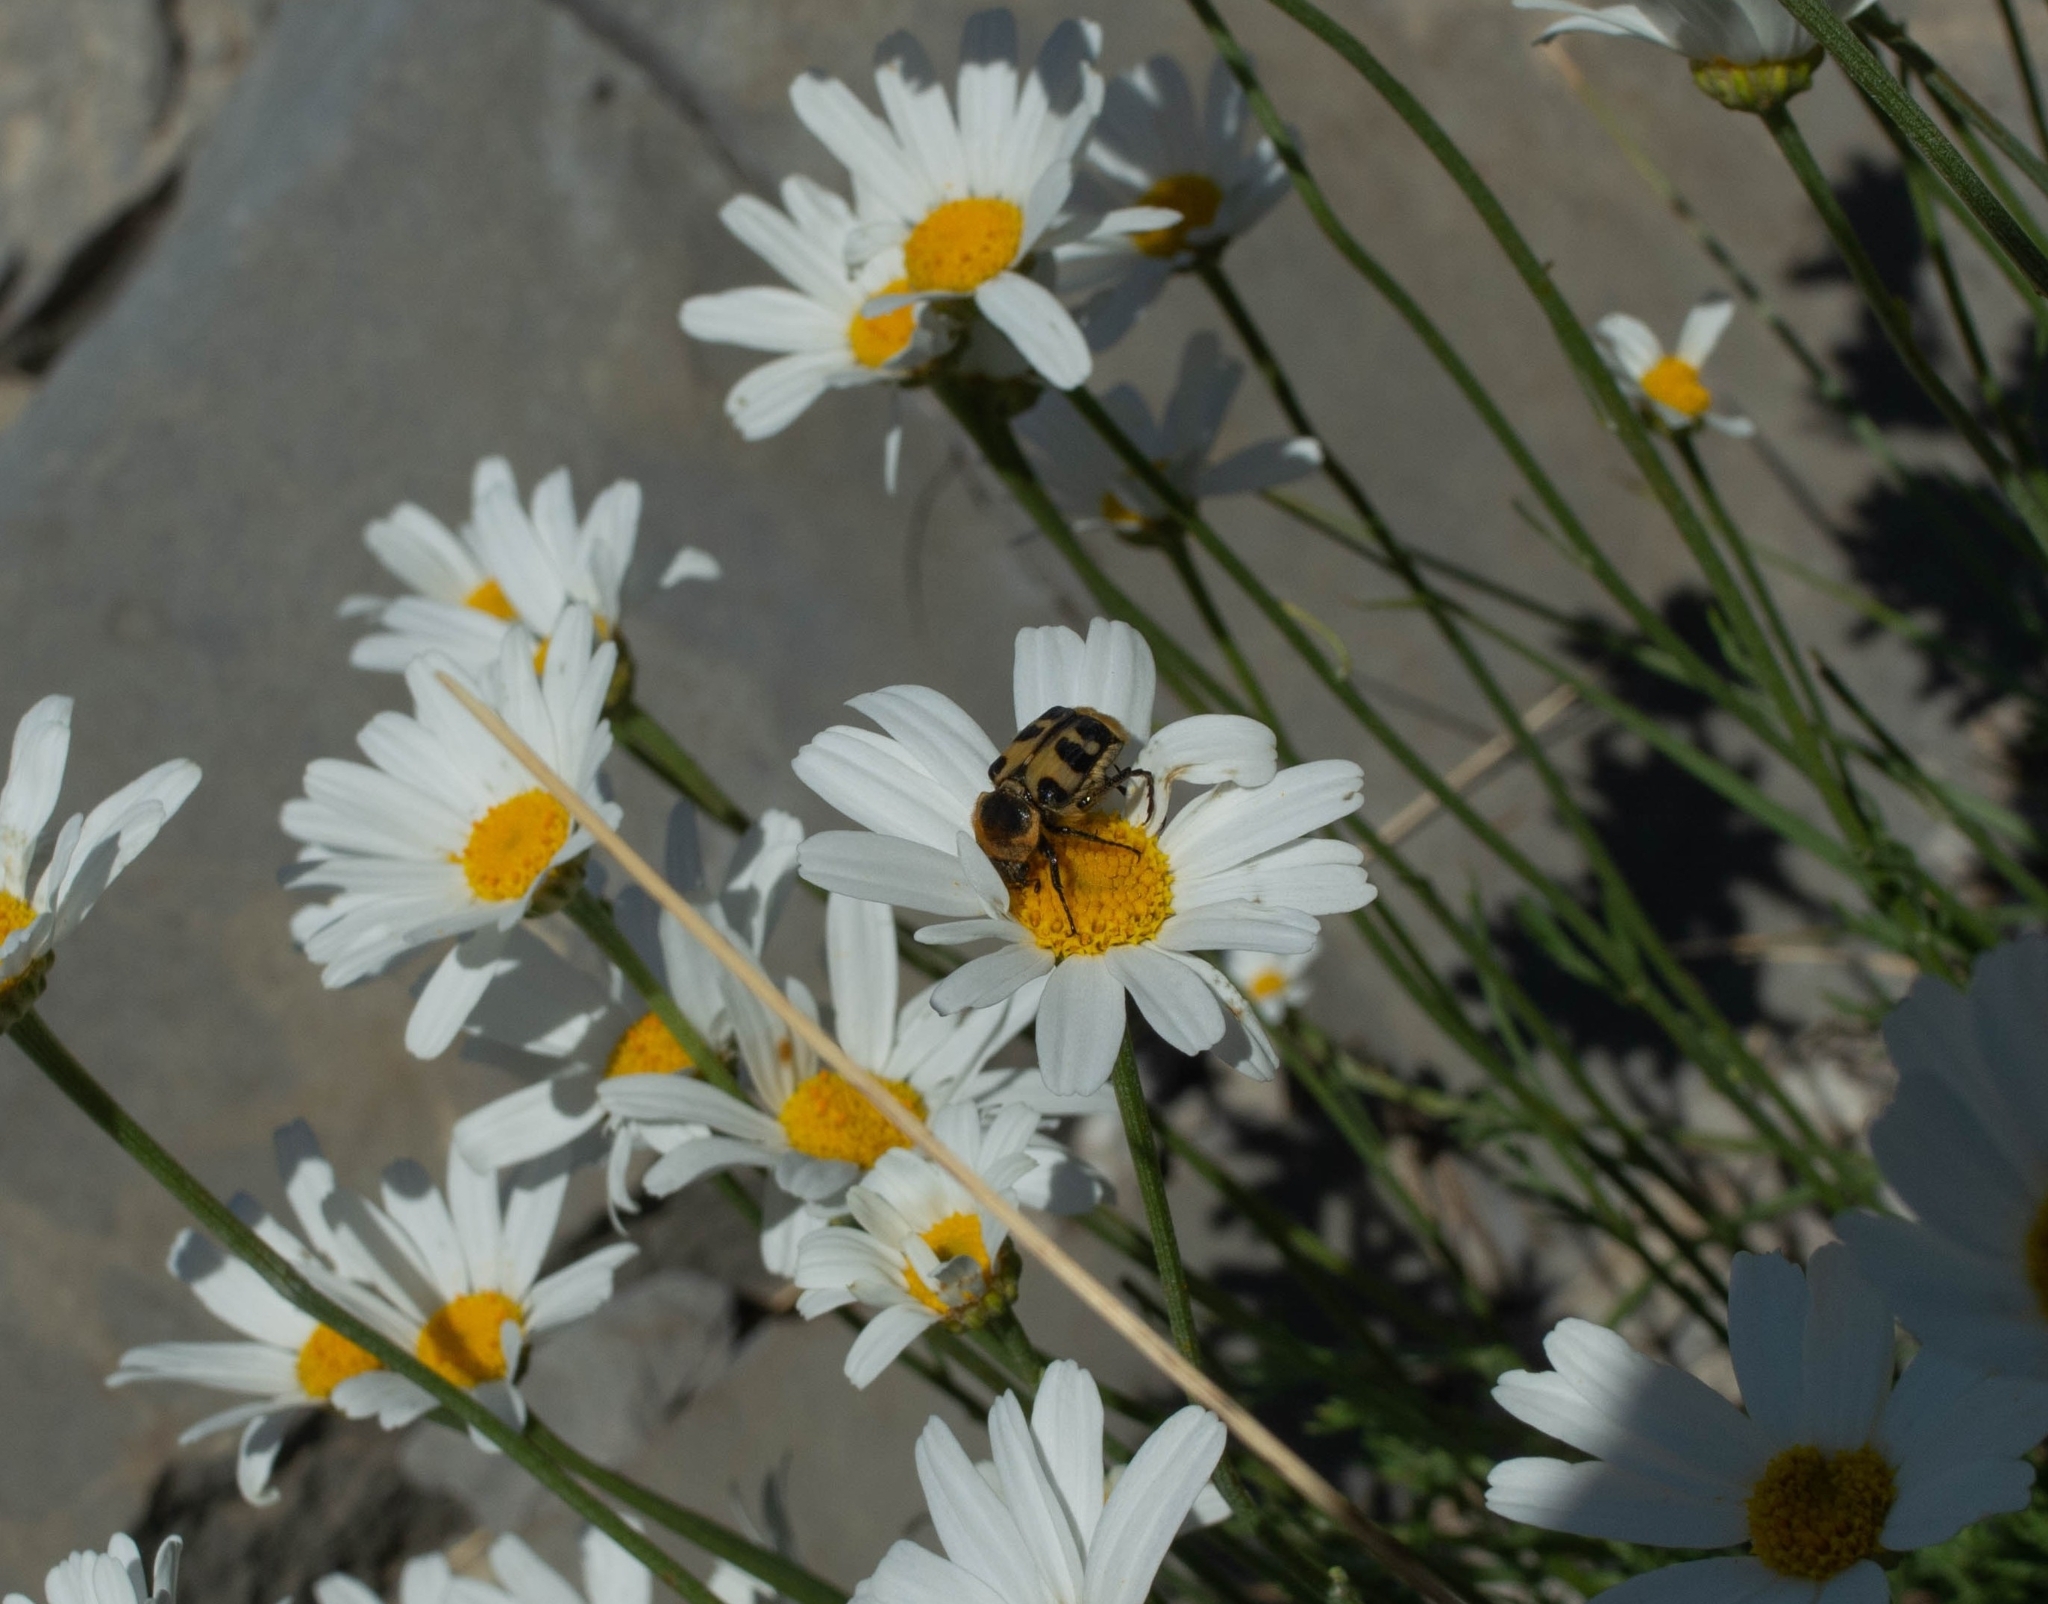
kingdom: Animalia
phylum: Arthropoda
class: Insecta
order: Coleoptera
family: Scarabaeidae
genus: Trichius
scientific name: Trichius sexualis
